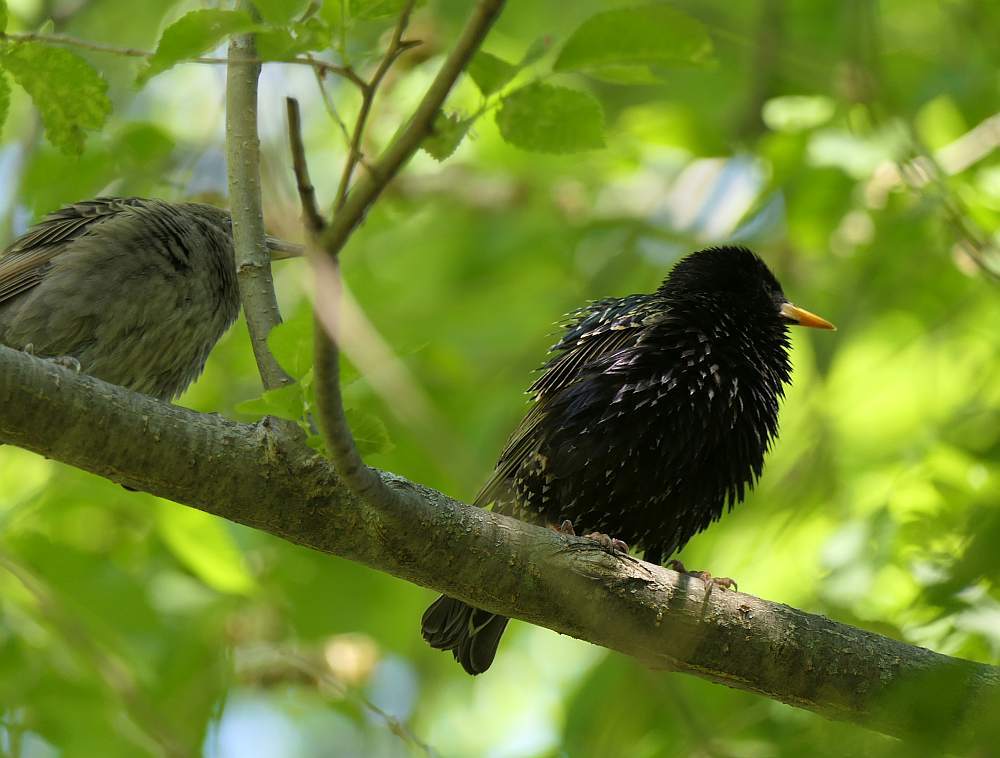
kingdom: Animalia
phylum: Chordata
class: Aves
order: Passeriformes
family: Sturnidae
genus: Sturnus
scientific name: Sturnus vulgaris
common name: Common starling
